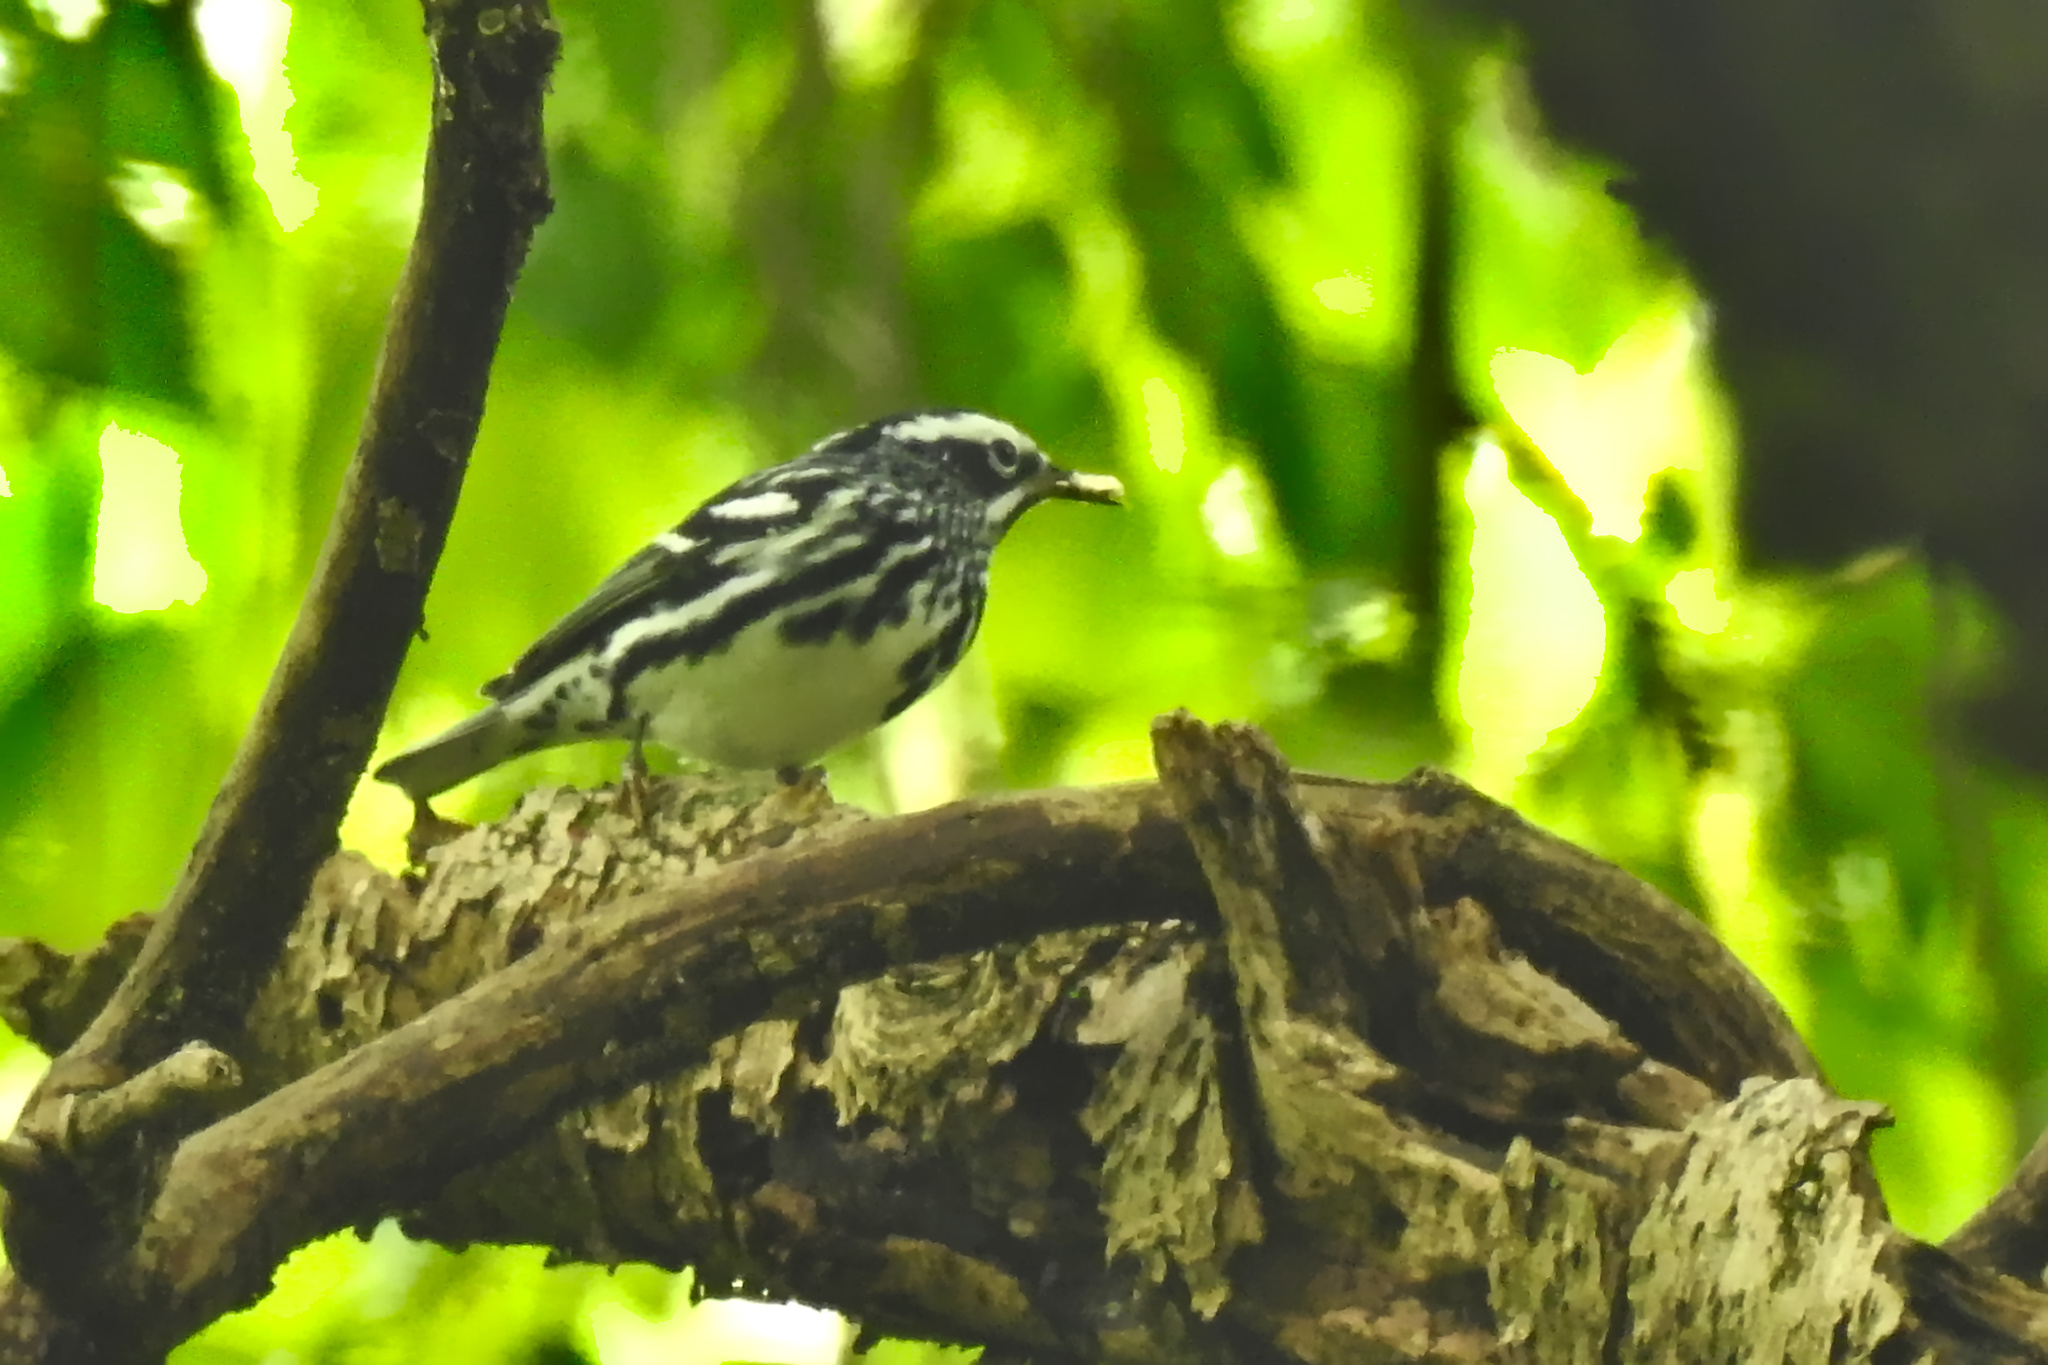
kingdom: Animalia
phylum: Chordata
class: Aves
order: Passeriformes
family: Parulidae
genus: Mniotilta
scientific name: Mniotilta varia
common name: Black-and-white warbler
